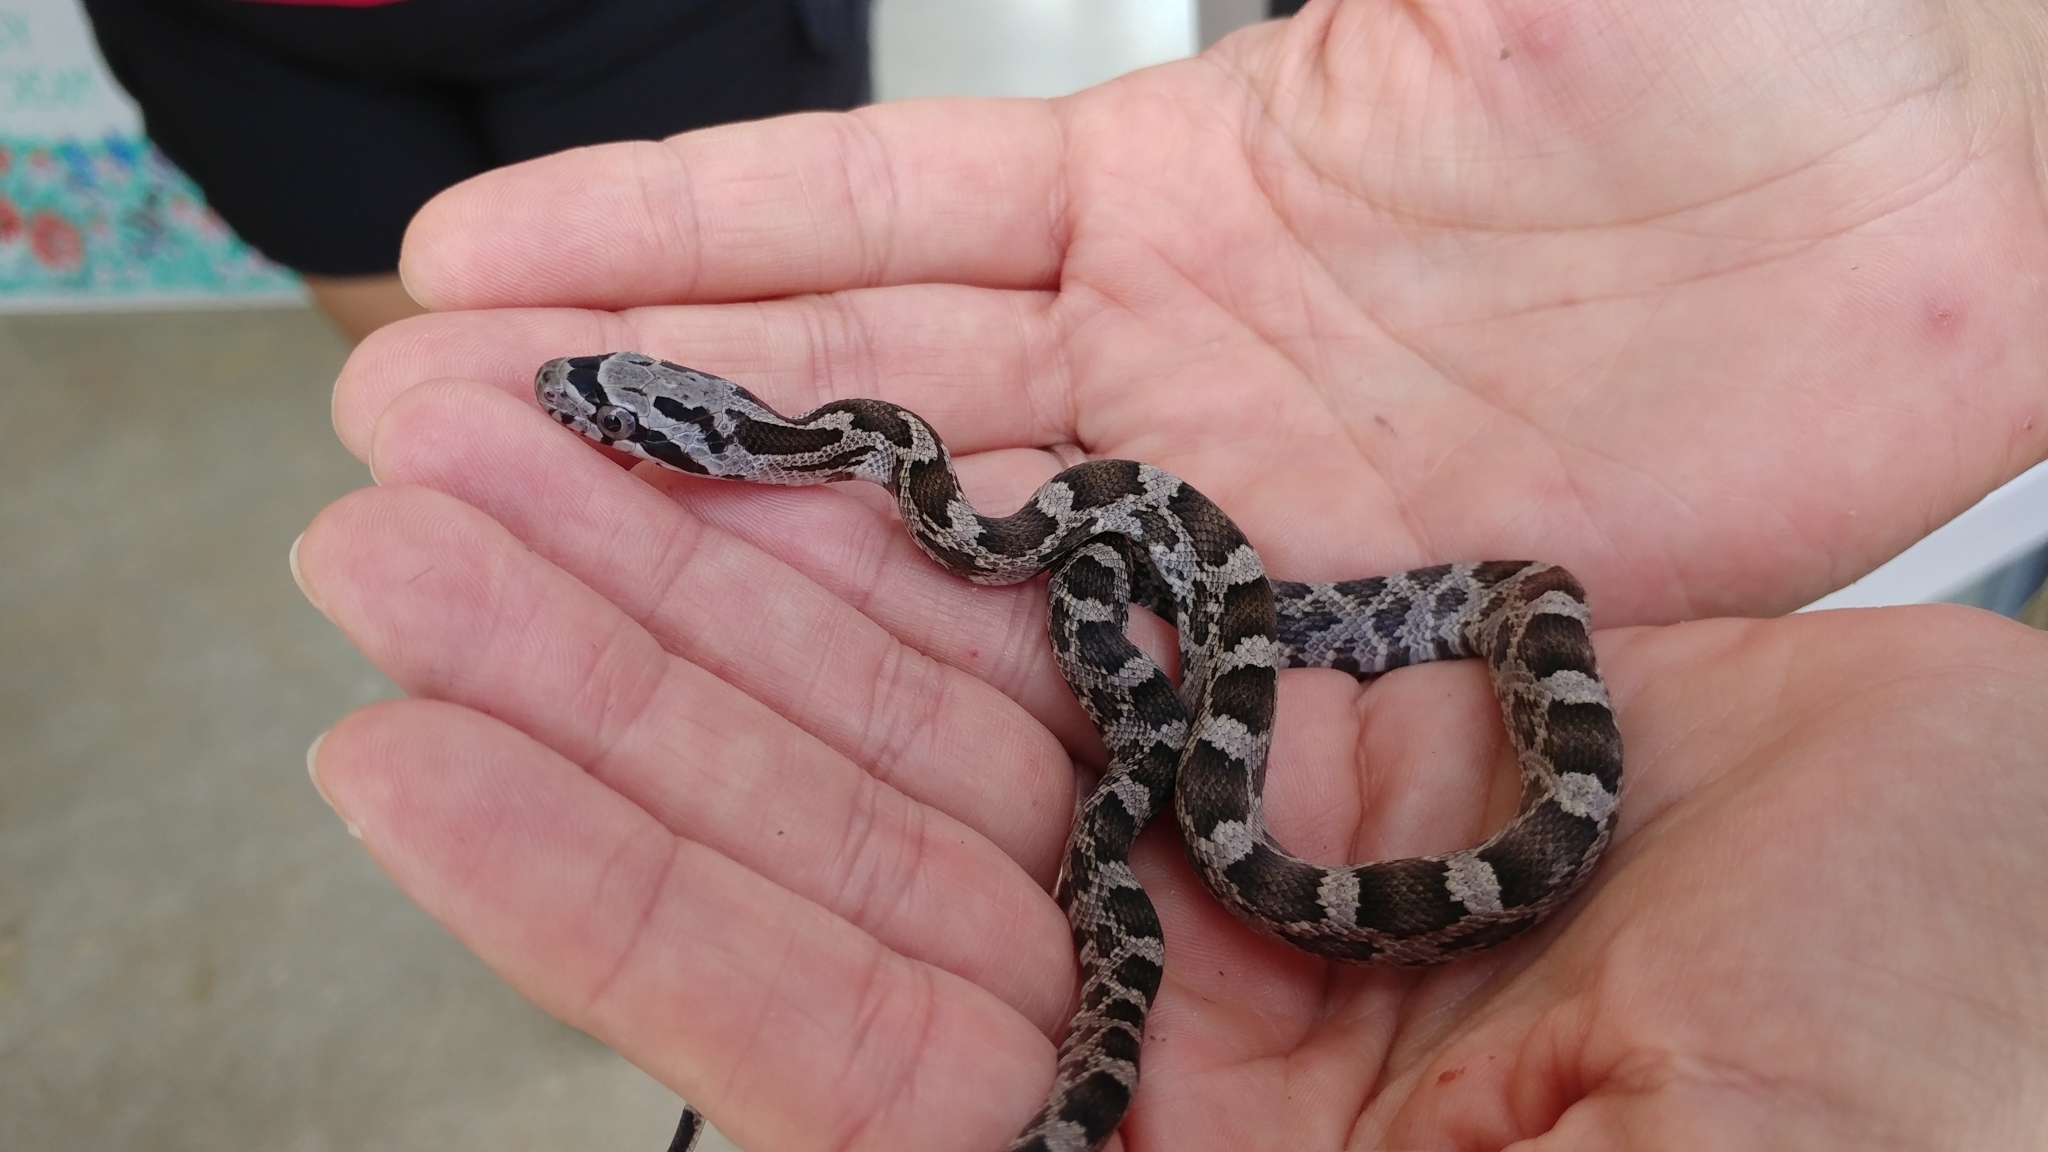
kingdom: Animalia
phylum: Chordata
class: Squamata
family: Colubridae
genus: Pantherophis
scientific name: Pantherophis obsoletus
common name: Black rat snake
